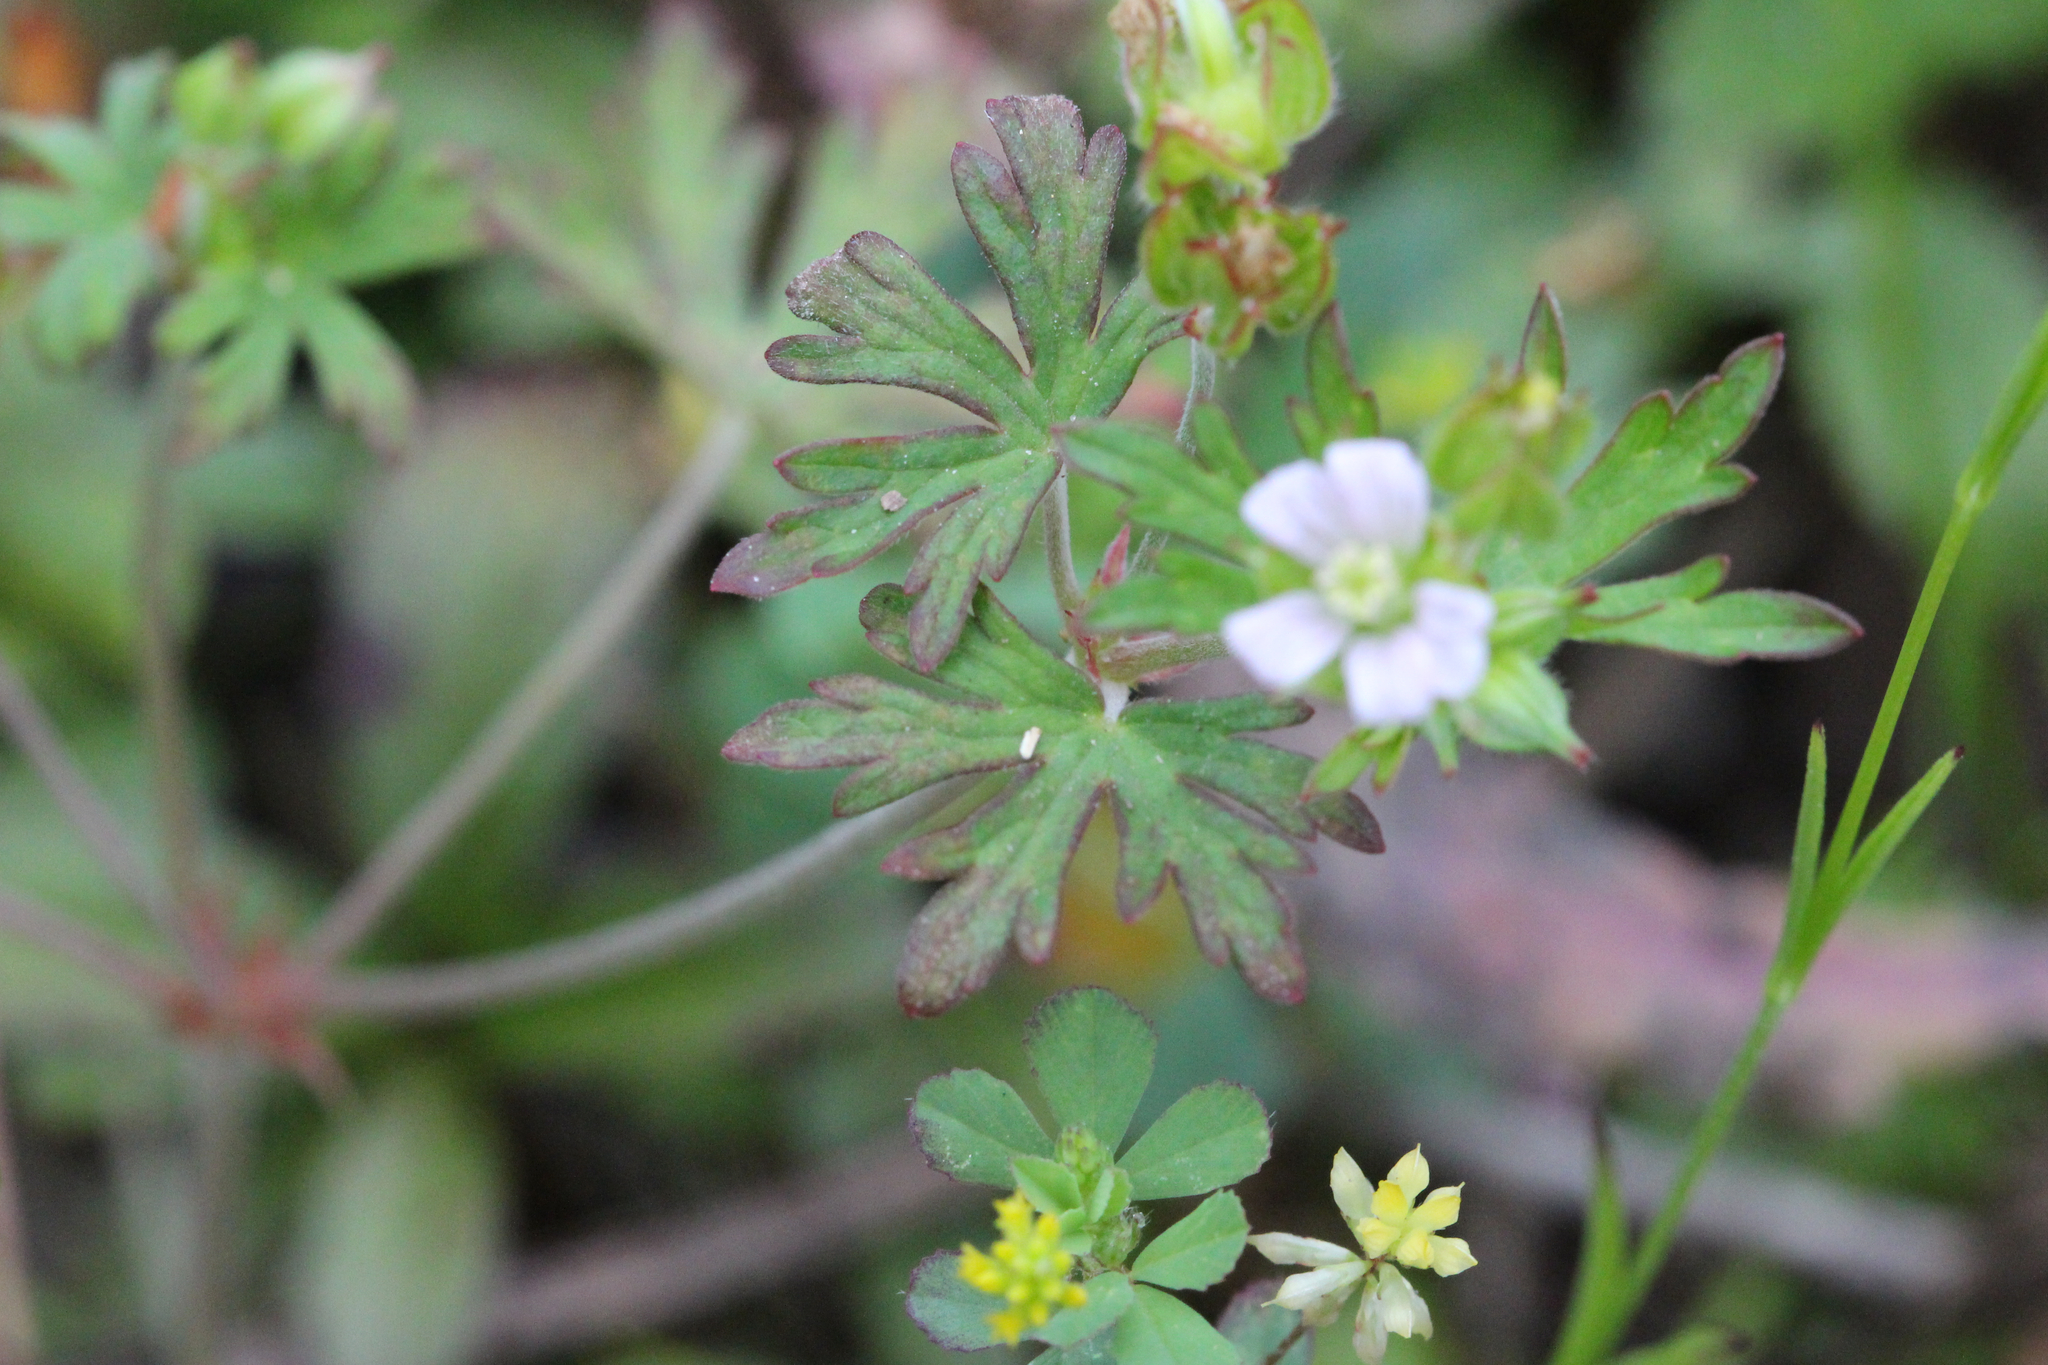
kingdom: Plantae
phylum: Tracheophyta
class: Magnoliopsida
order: Geraniales
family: Geraniaceae
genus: Geranium
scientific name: Geranium carolinianum
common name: Carolina crane's-bill
